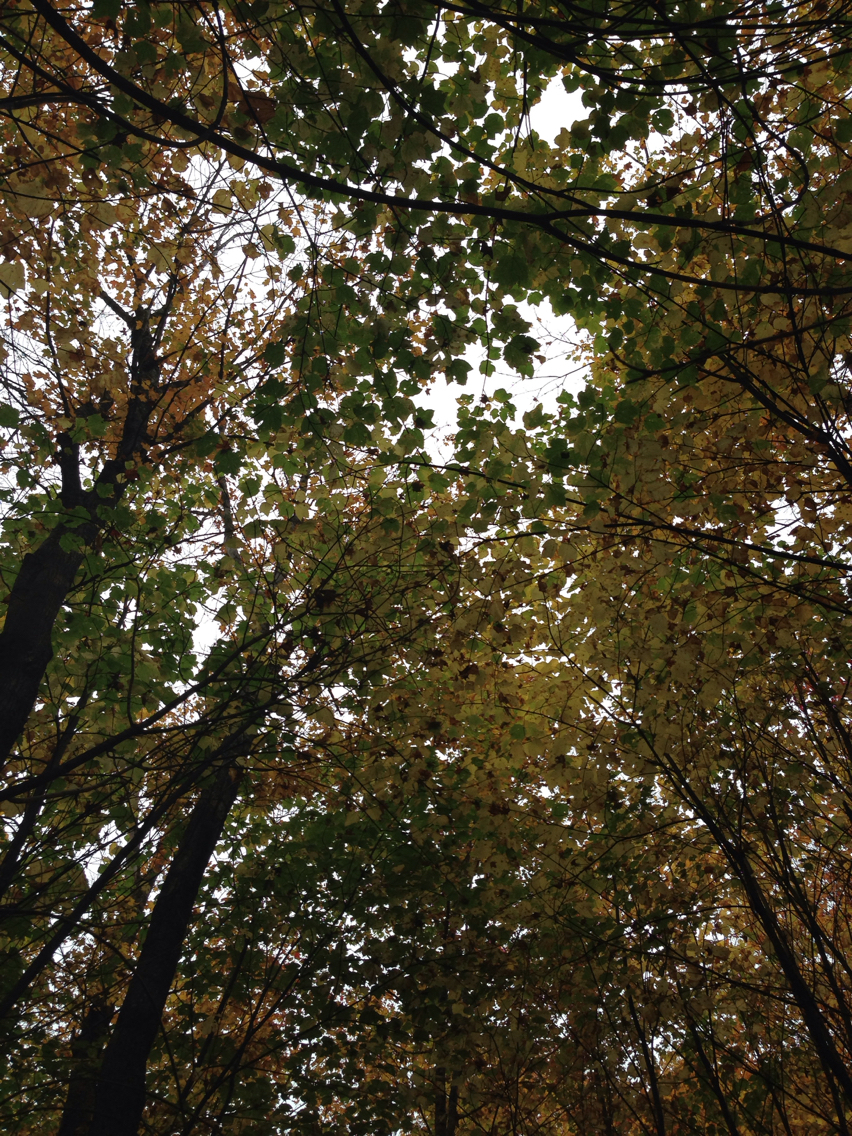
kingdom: Plantae
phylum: Tracheophyta
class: Magnoliopsida
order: Sapindales
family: Sapindaceae
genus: Acer
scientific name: Acer pensylvanicum
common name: Moosewood
